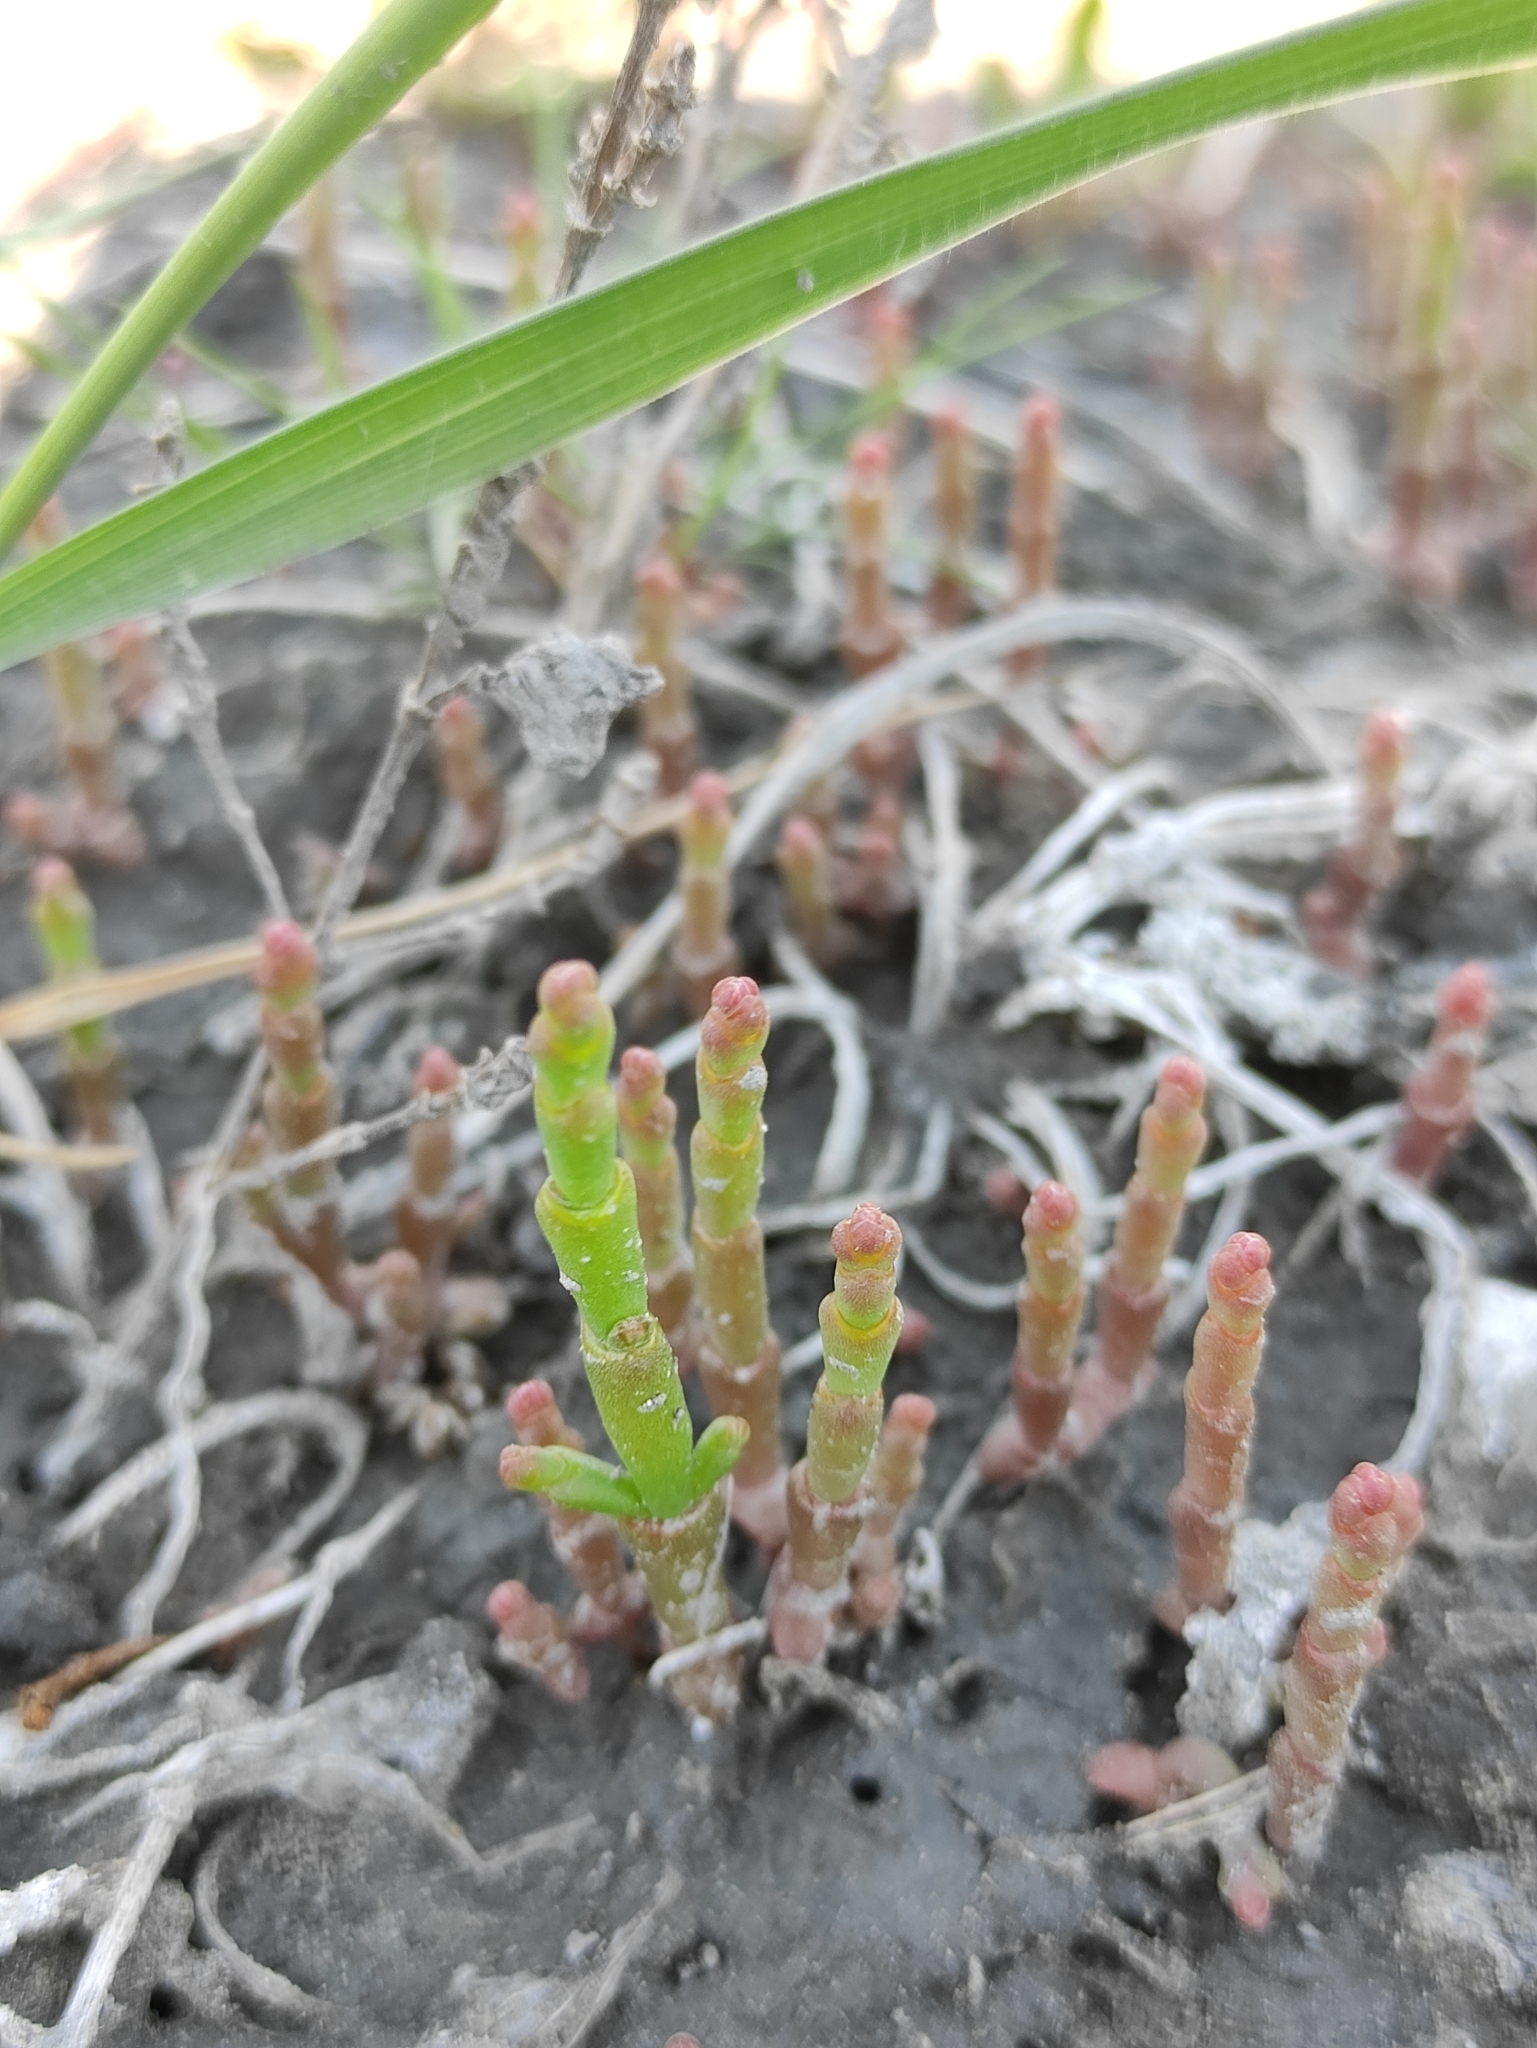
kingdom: Plantae
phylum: Tracheophyta
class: Magnoliopsida
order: Caryophyllales
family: Amaranthaceae
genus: Salicornia
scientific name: Salicornia perennans
